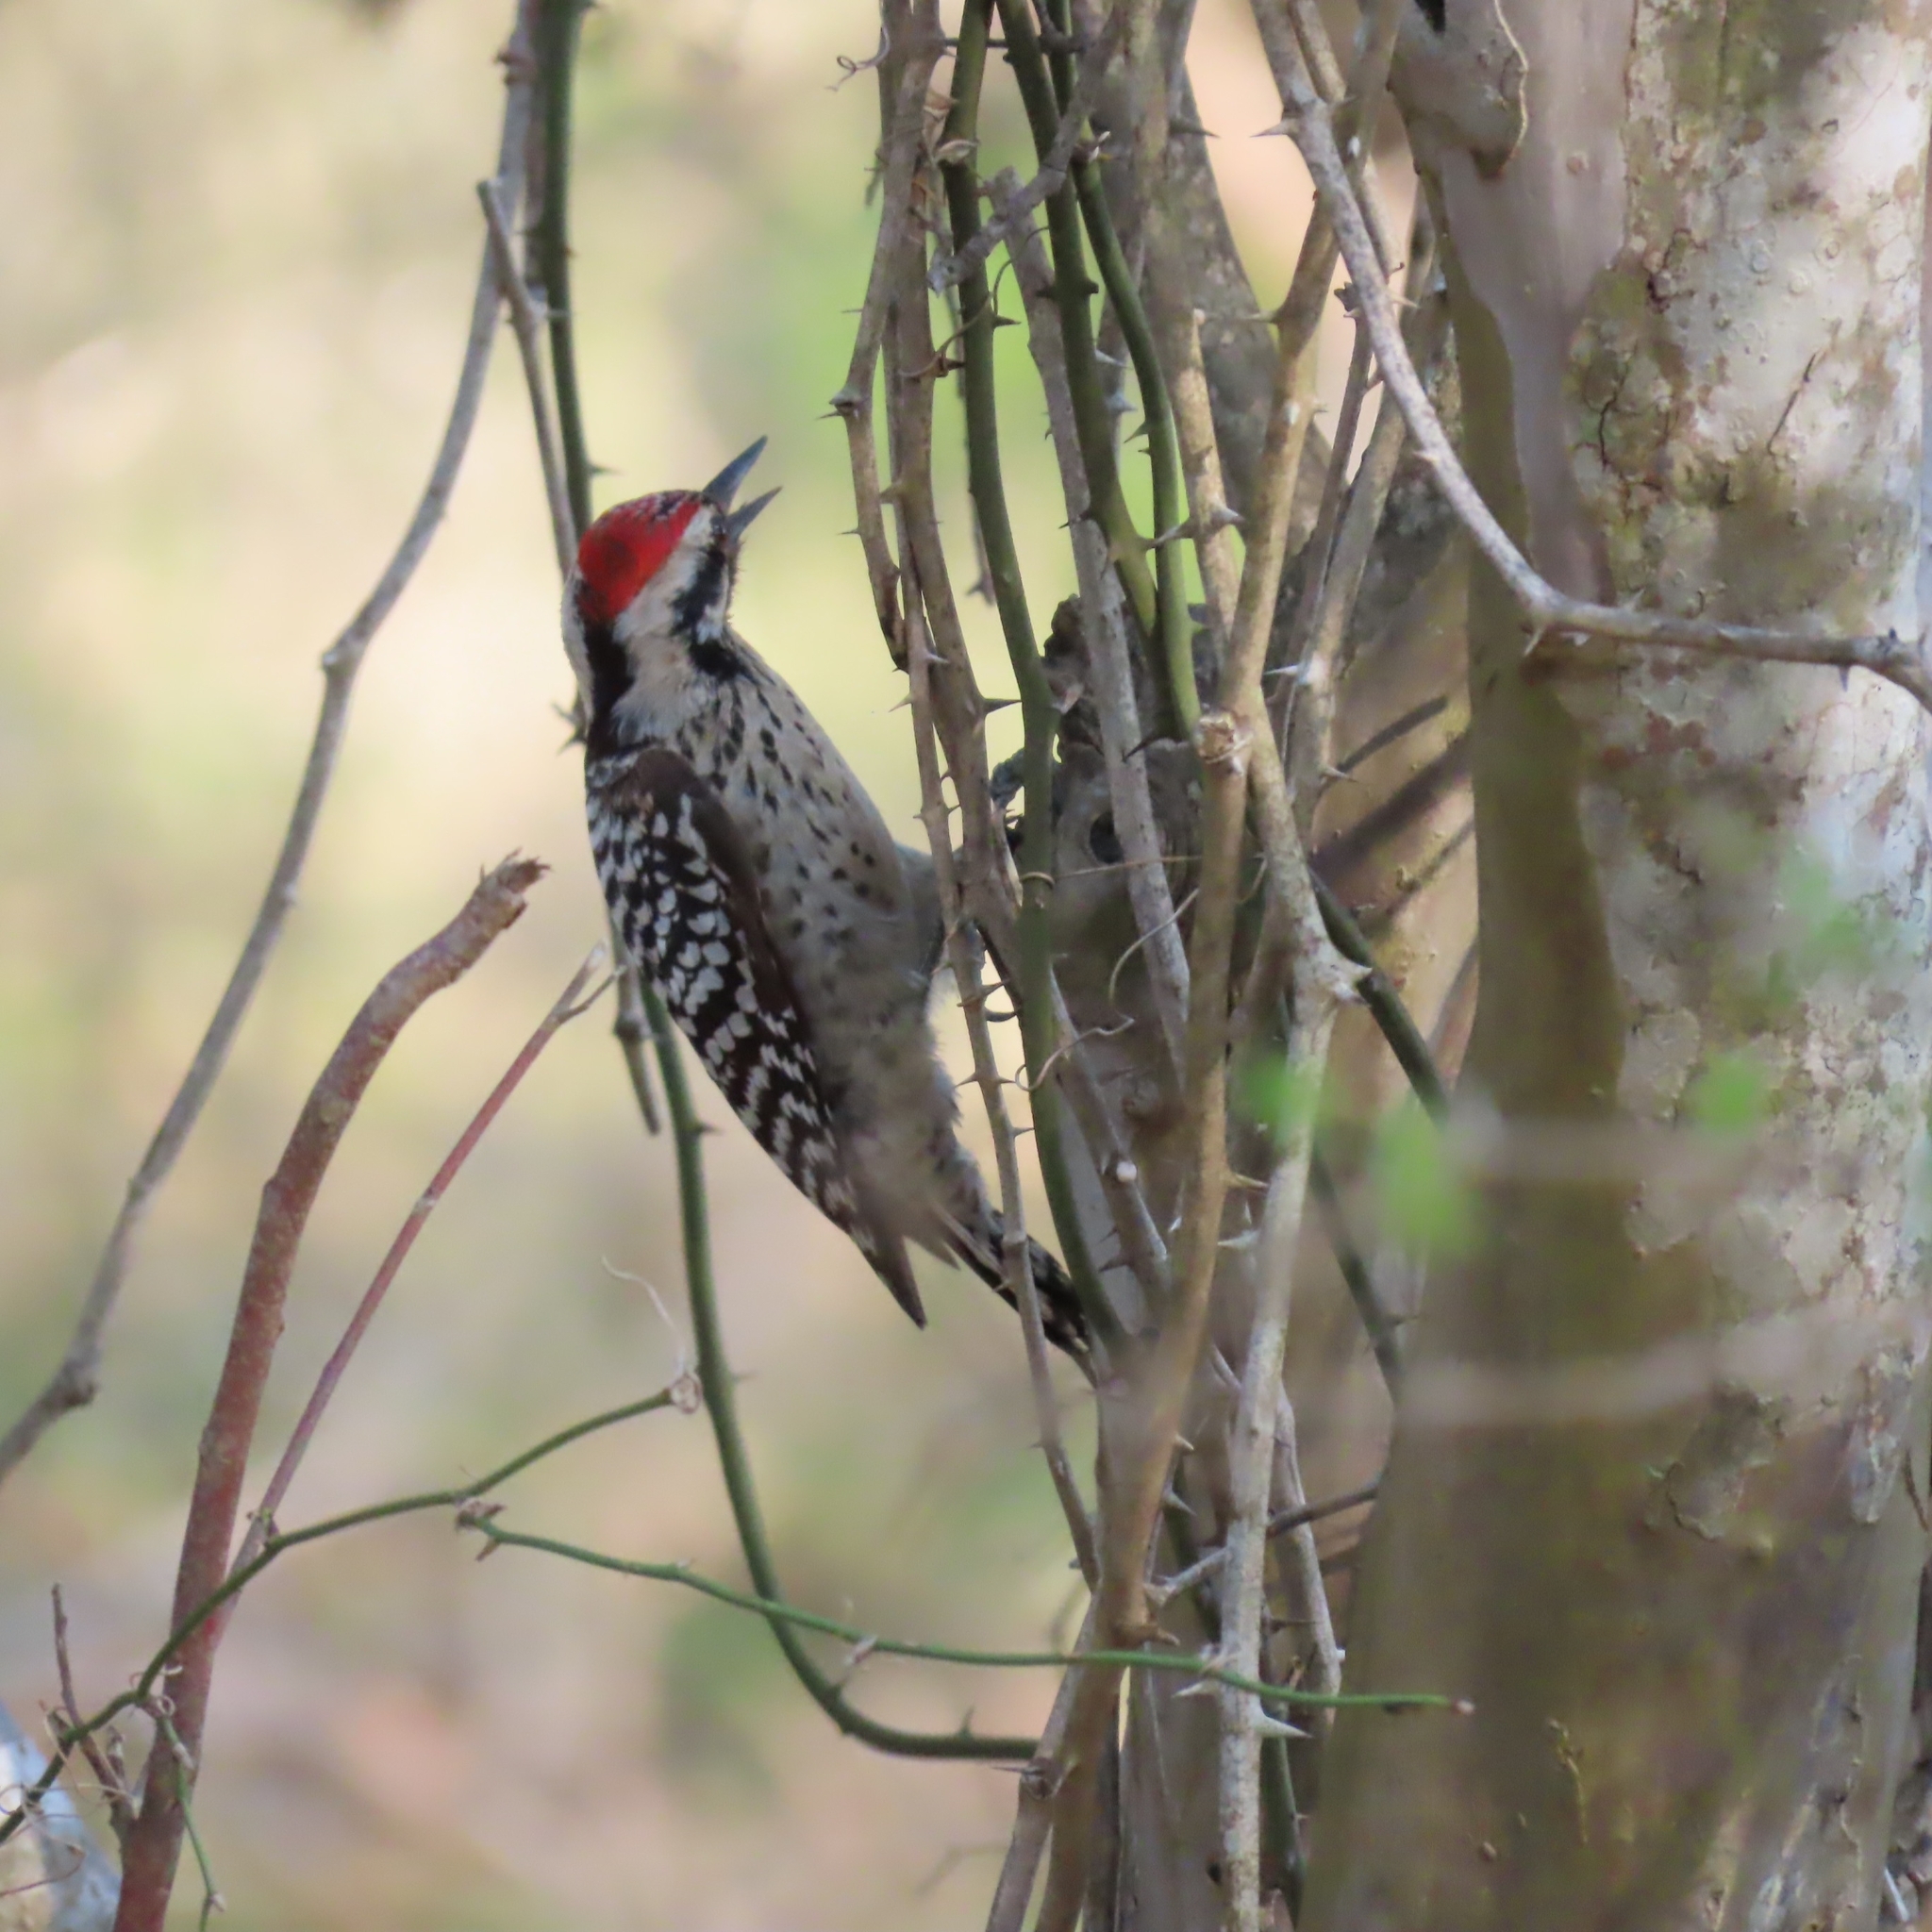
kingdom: Animalia
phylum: Chordata
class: Aves
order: Piciformes
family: Picidae
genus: Dryobates
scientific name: Dryobates scalaris
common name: Ladder-backed woodpecker
